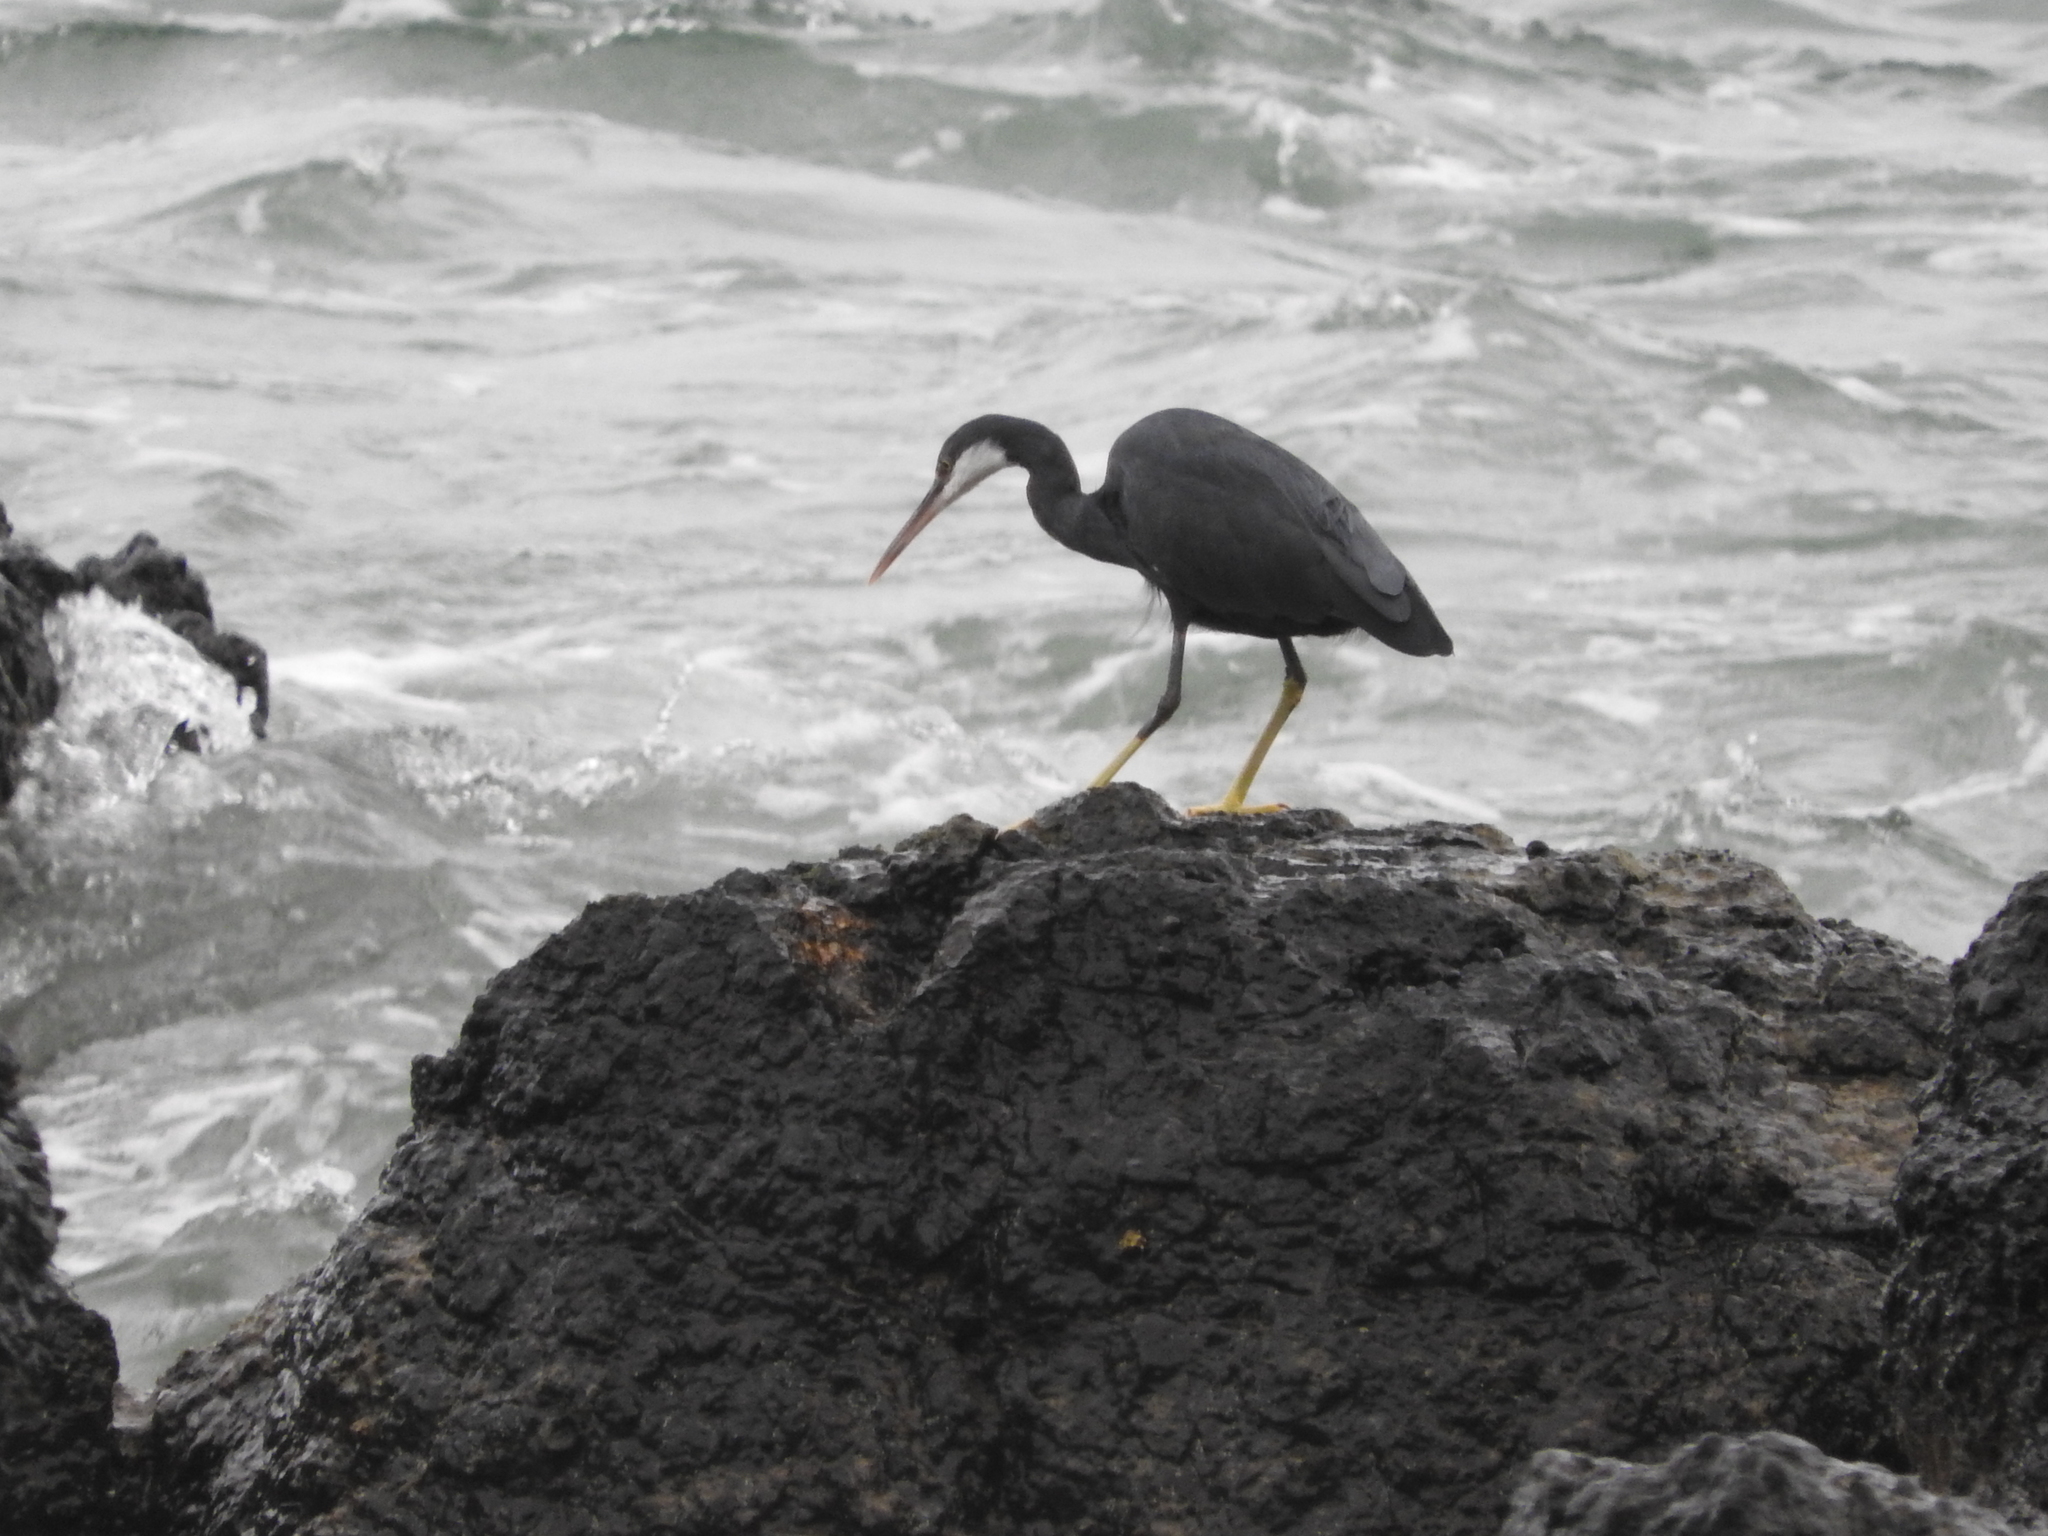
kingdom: Animalia
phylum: Chordata
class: Aves
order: Pelecaniformes
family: Ardeidae
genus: Egretta
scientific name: Egretta gularis
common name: Western reef-heron
